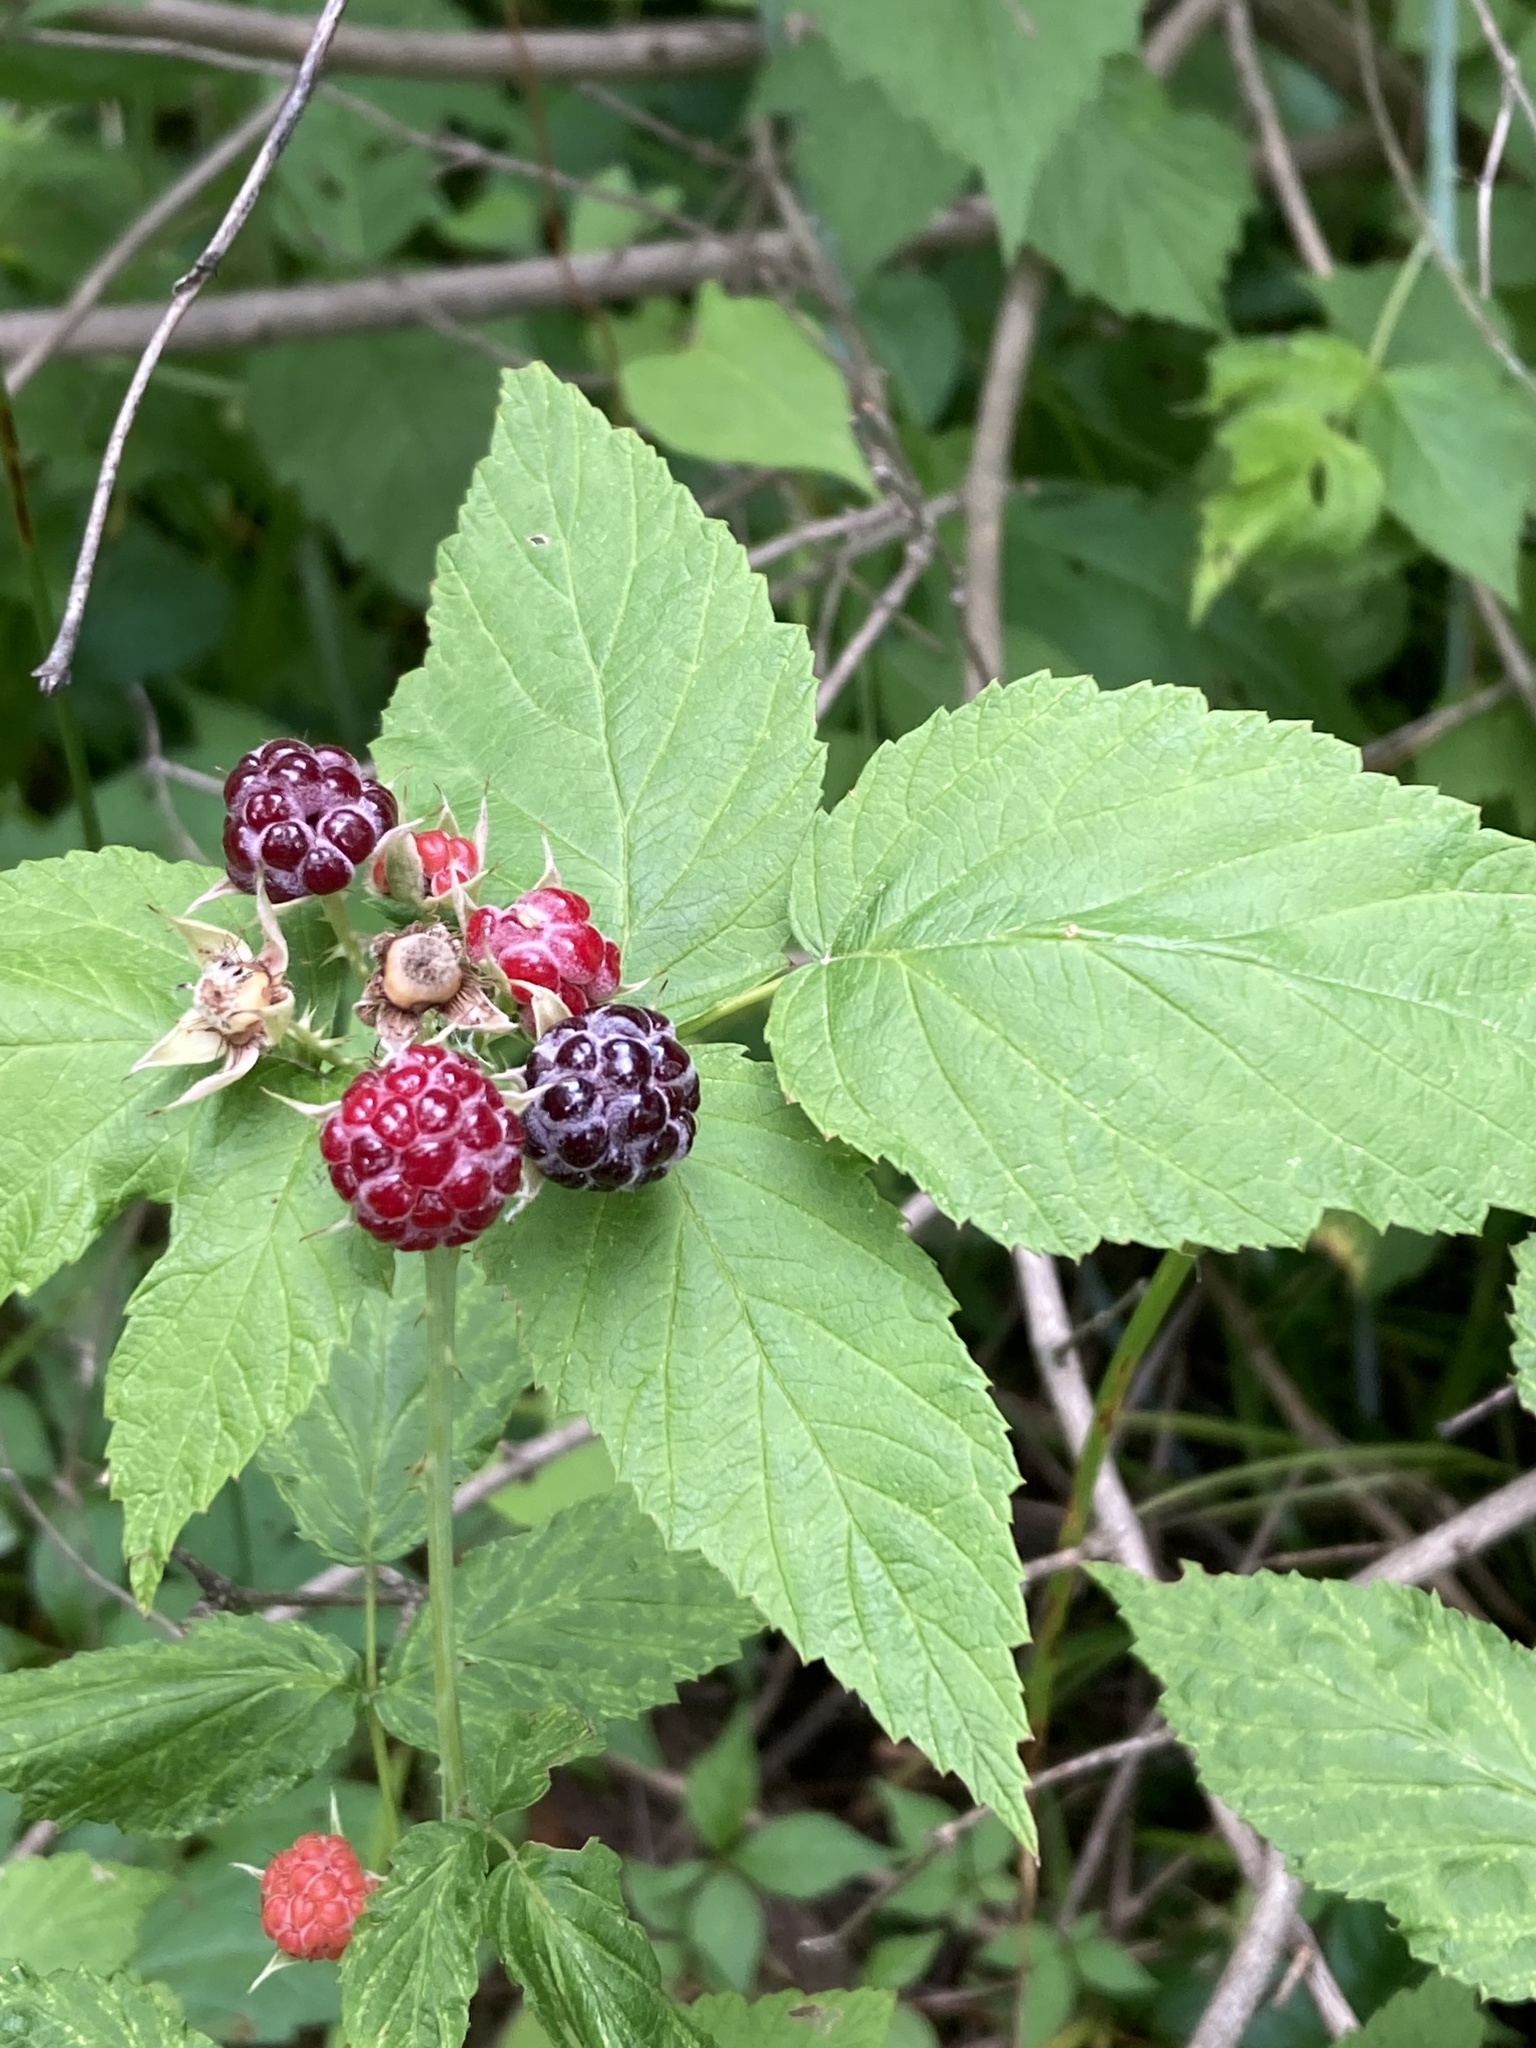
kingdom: Plantae
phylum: Tracheophyta
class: Magnoliopsida
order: Rosales
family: Rosaceae
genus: Rubus
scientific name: Rubus occidentalis
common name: Black raspberry
